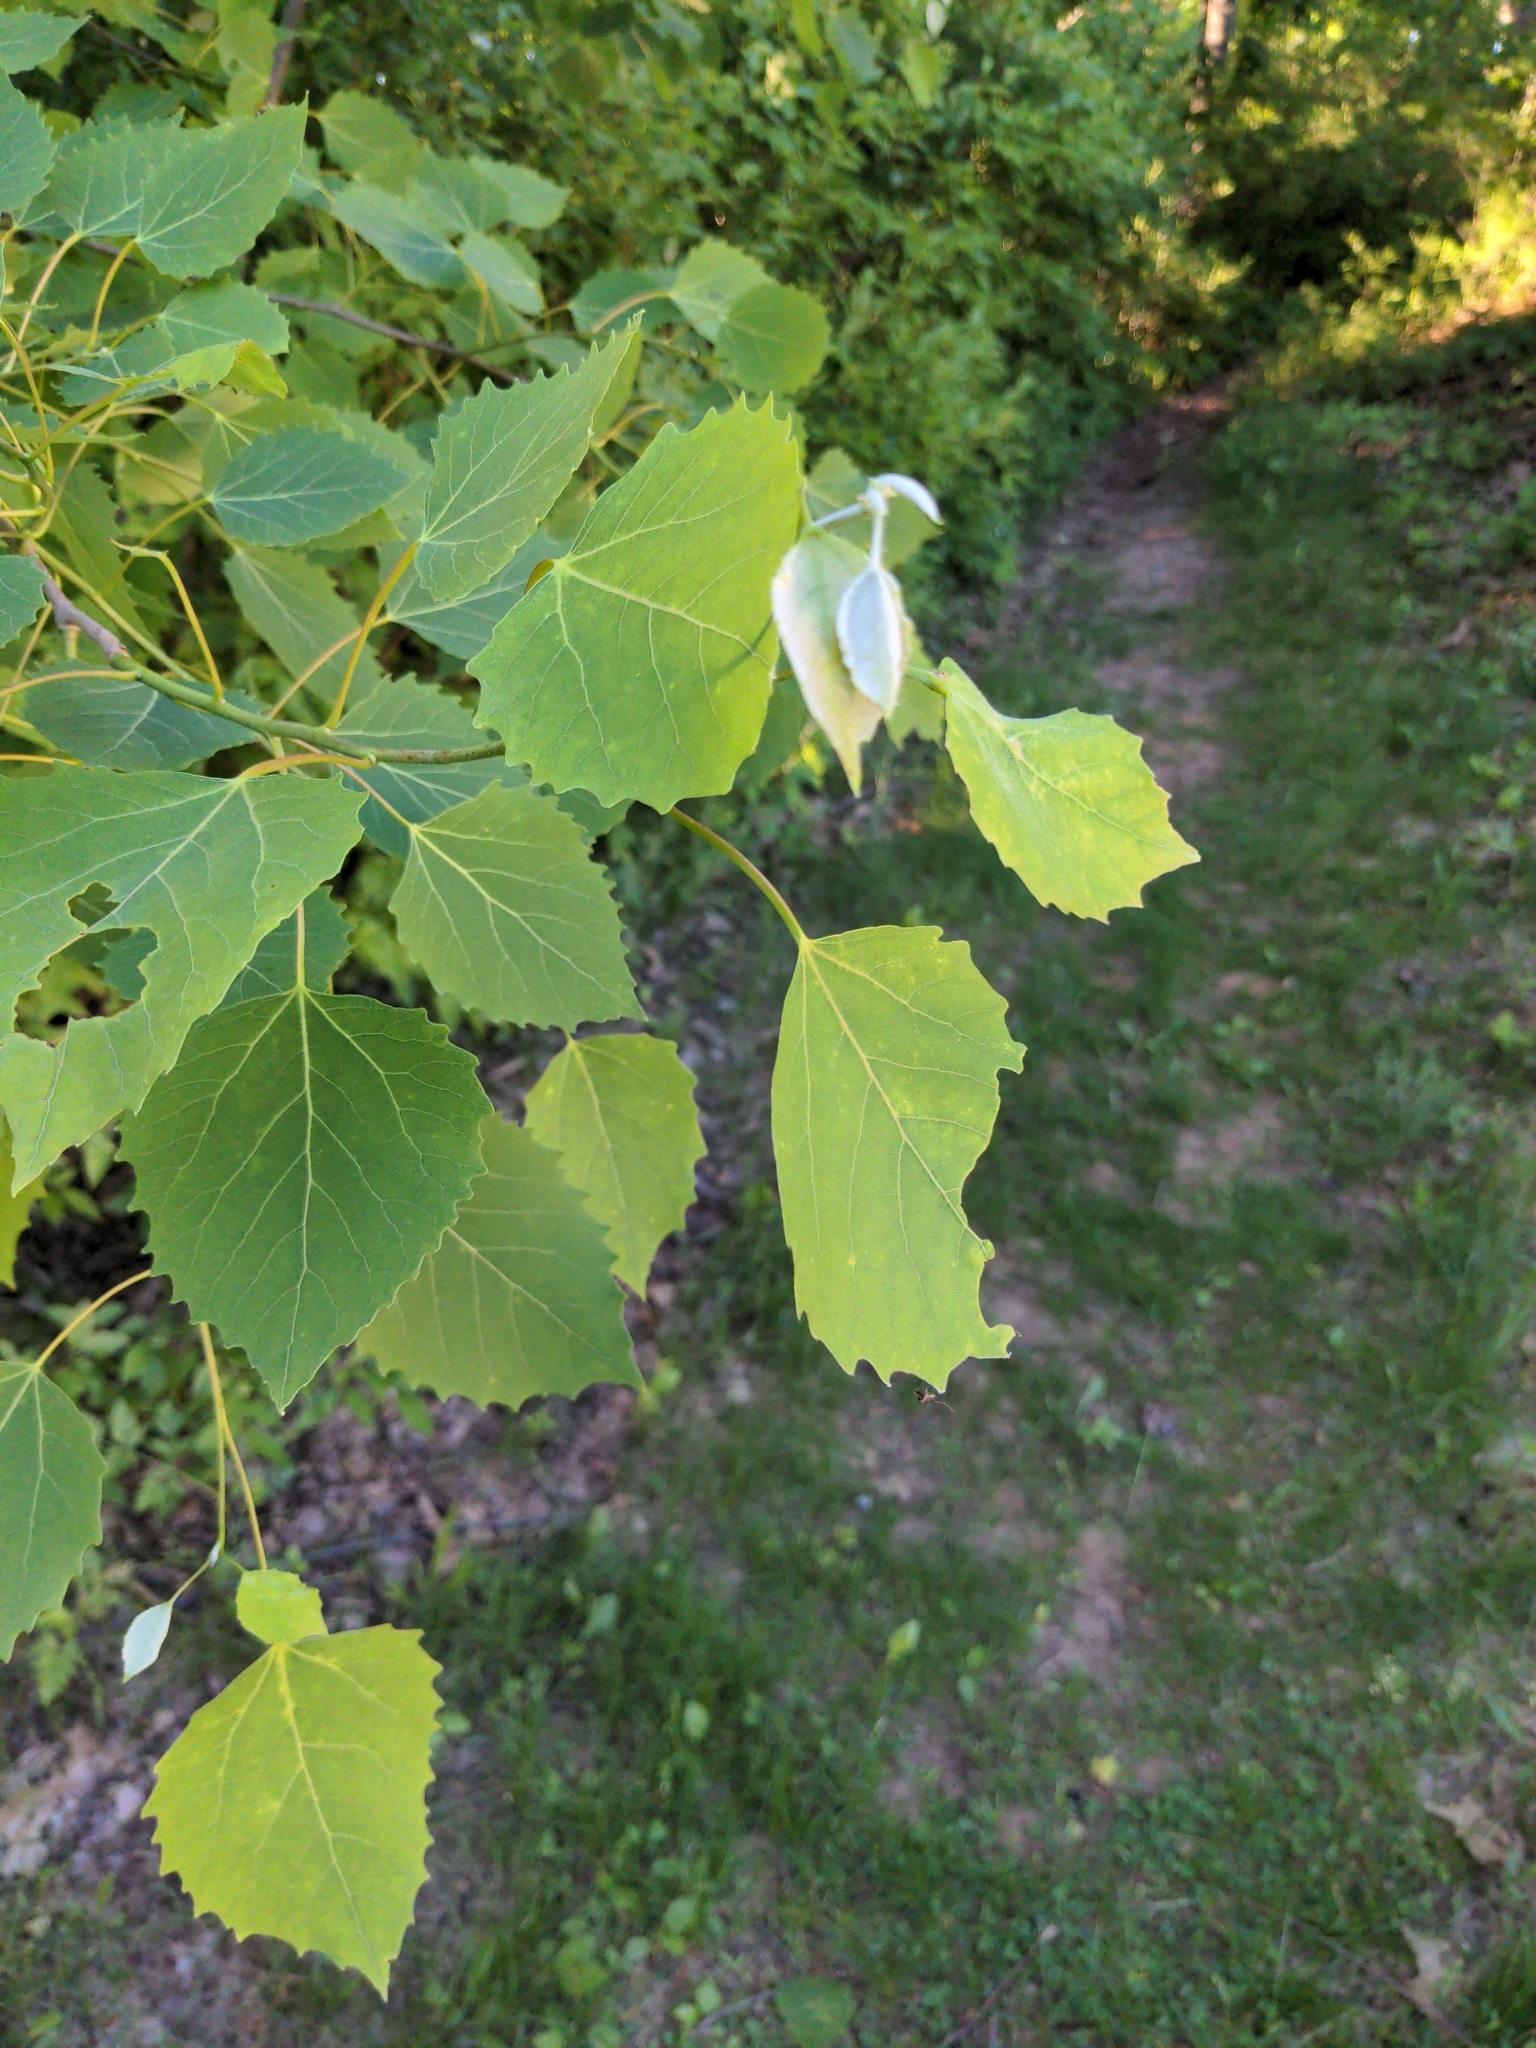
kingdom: Plantae
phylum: Tracheophyta
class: Magnoliopsida
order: Malpighiales
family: Salicaceae
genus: Populus
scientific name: Populus grandidentata
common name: Bigtooth aspen
